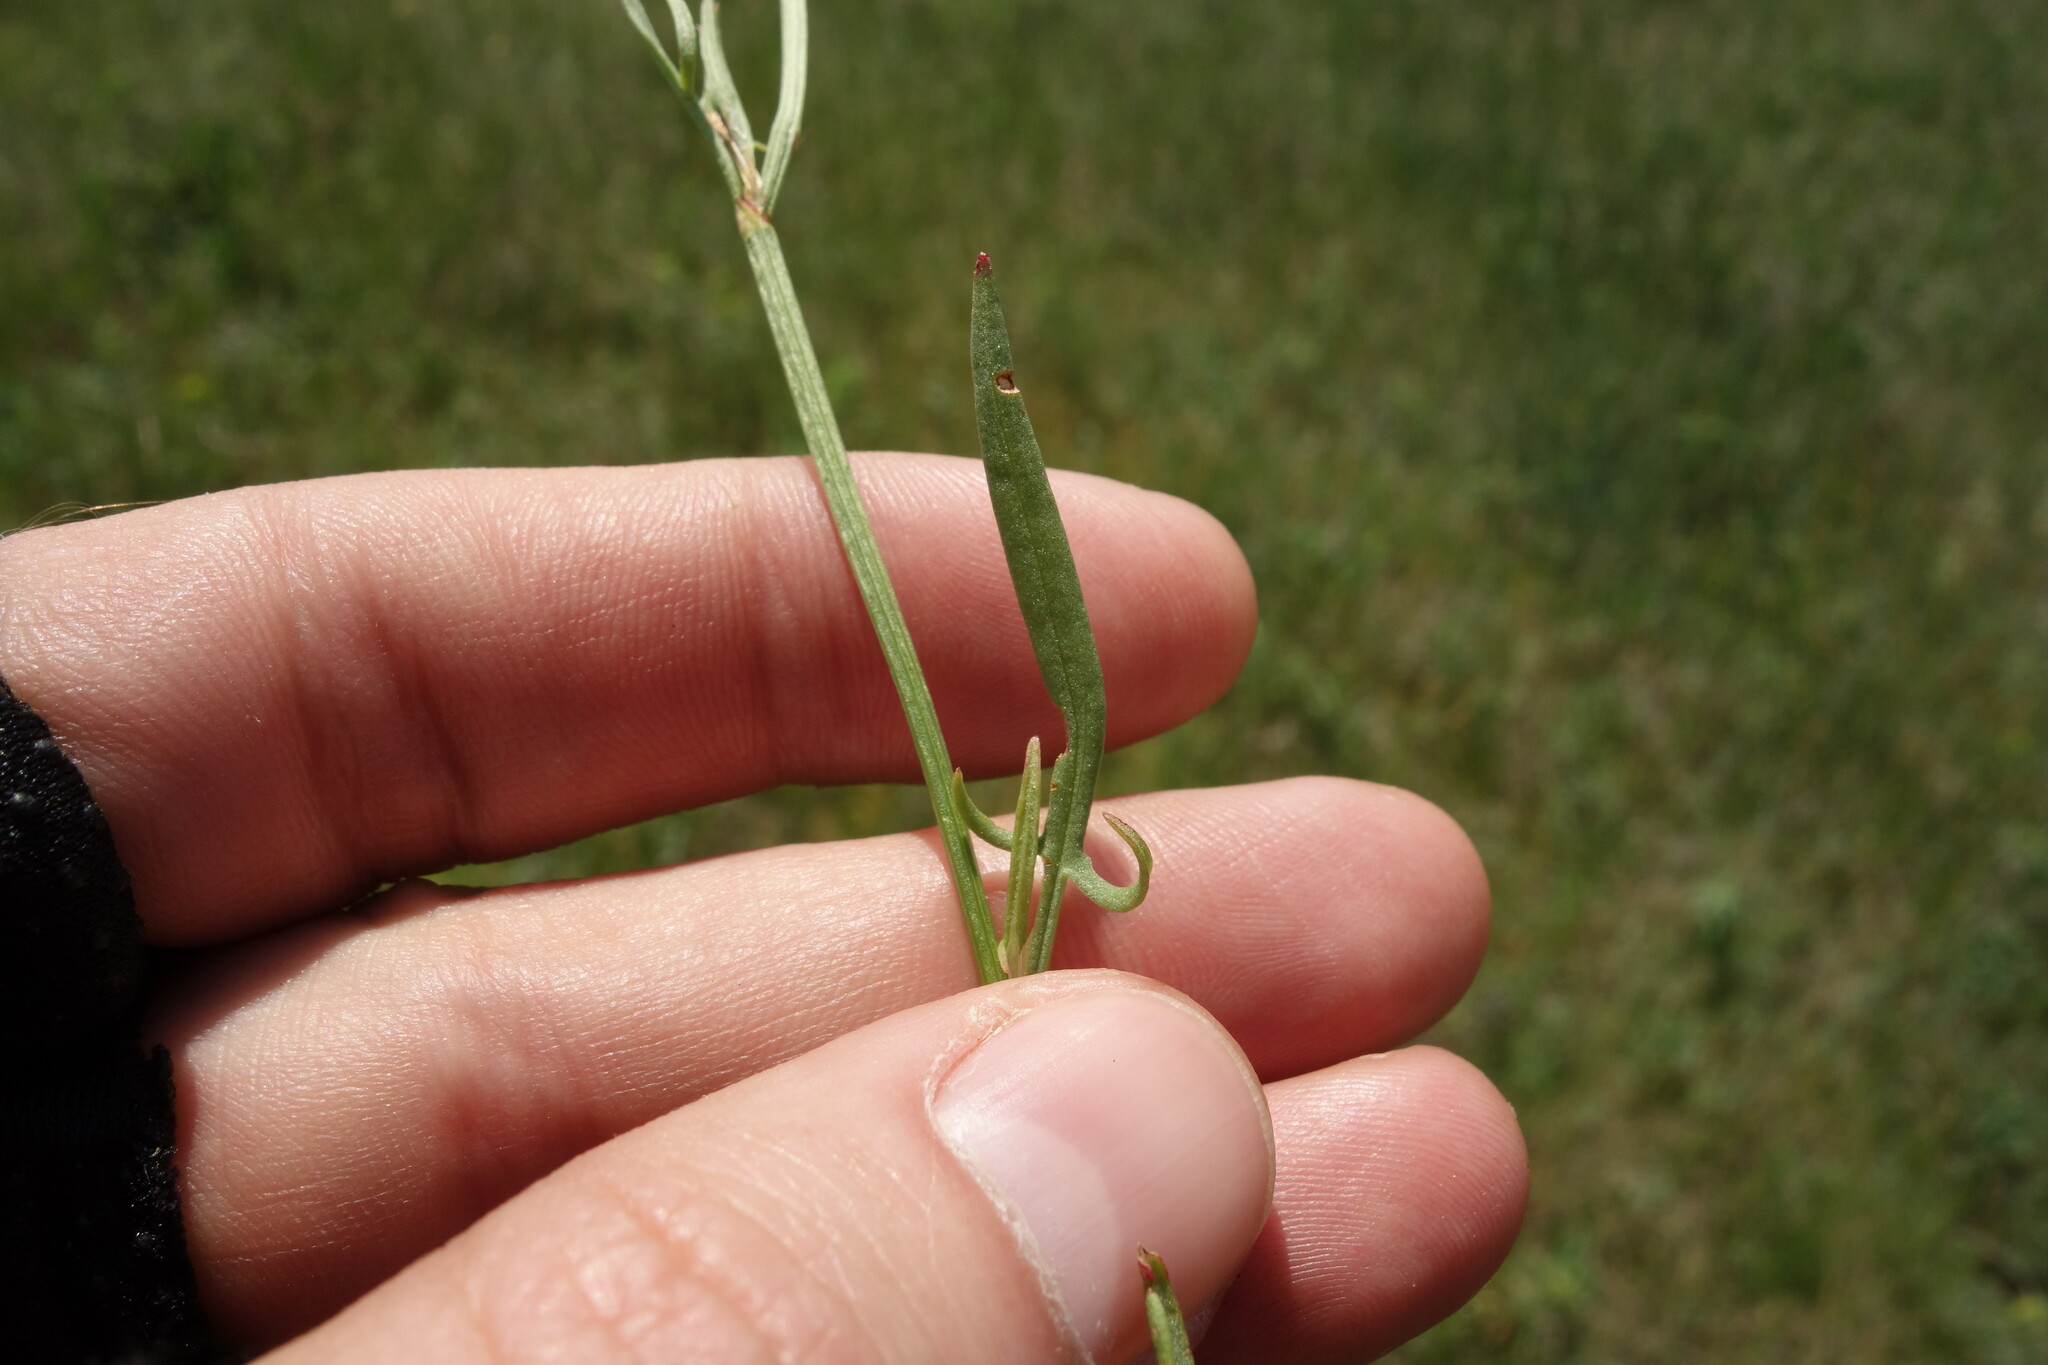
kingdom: Plantae
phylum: Tracheophyta
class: Magnoliopsida
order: Caryophyllales
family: Polygonaceae
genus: Rumex
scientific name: Rumex acetosella
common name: Common sheep sorrel
